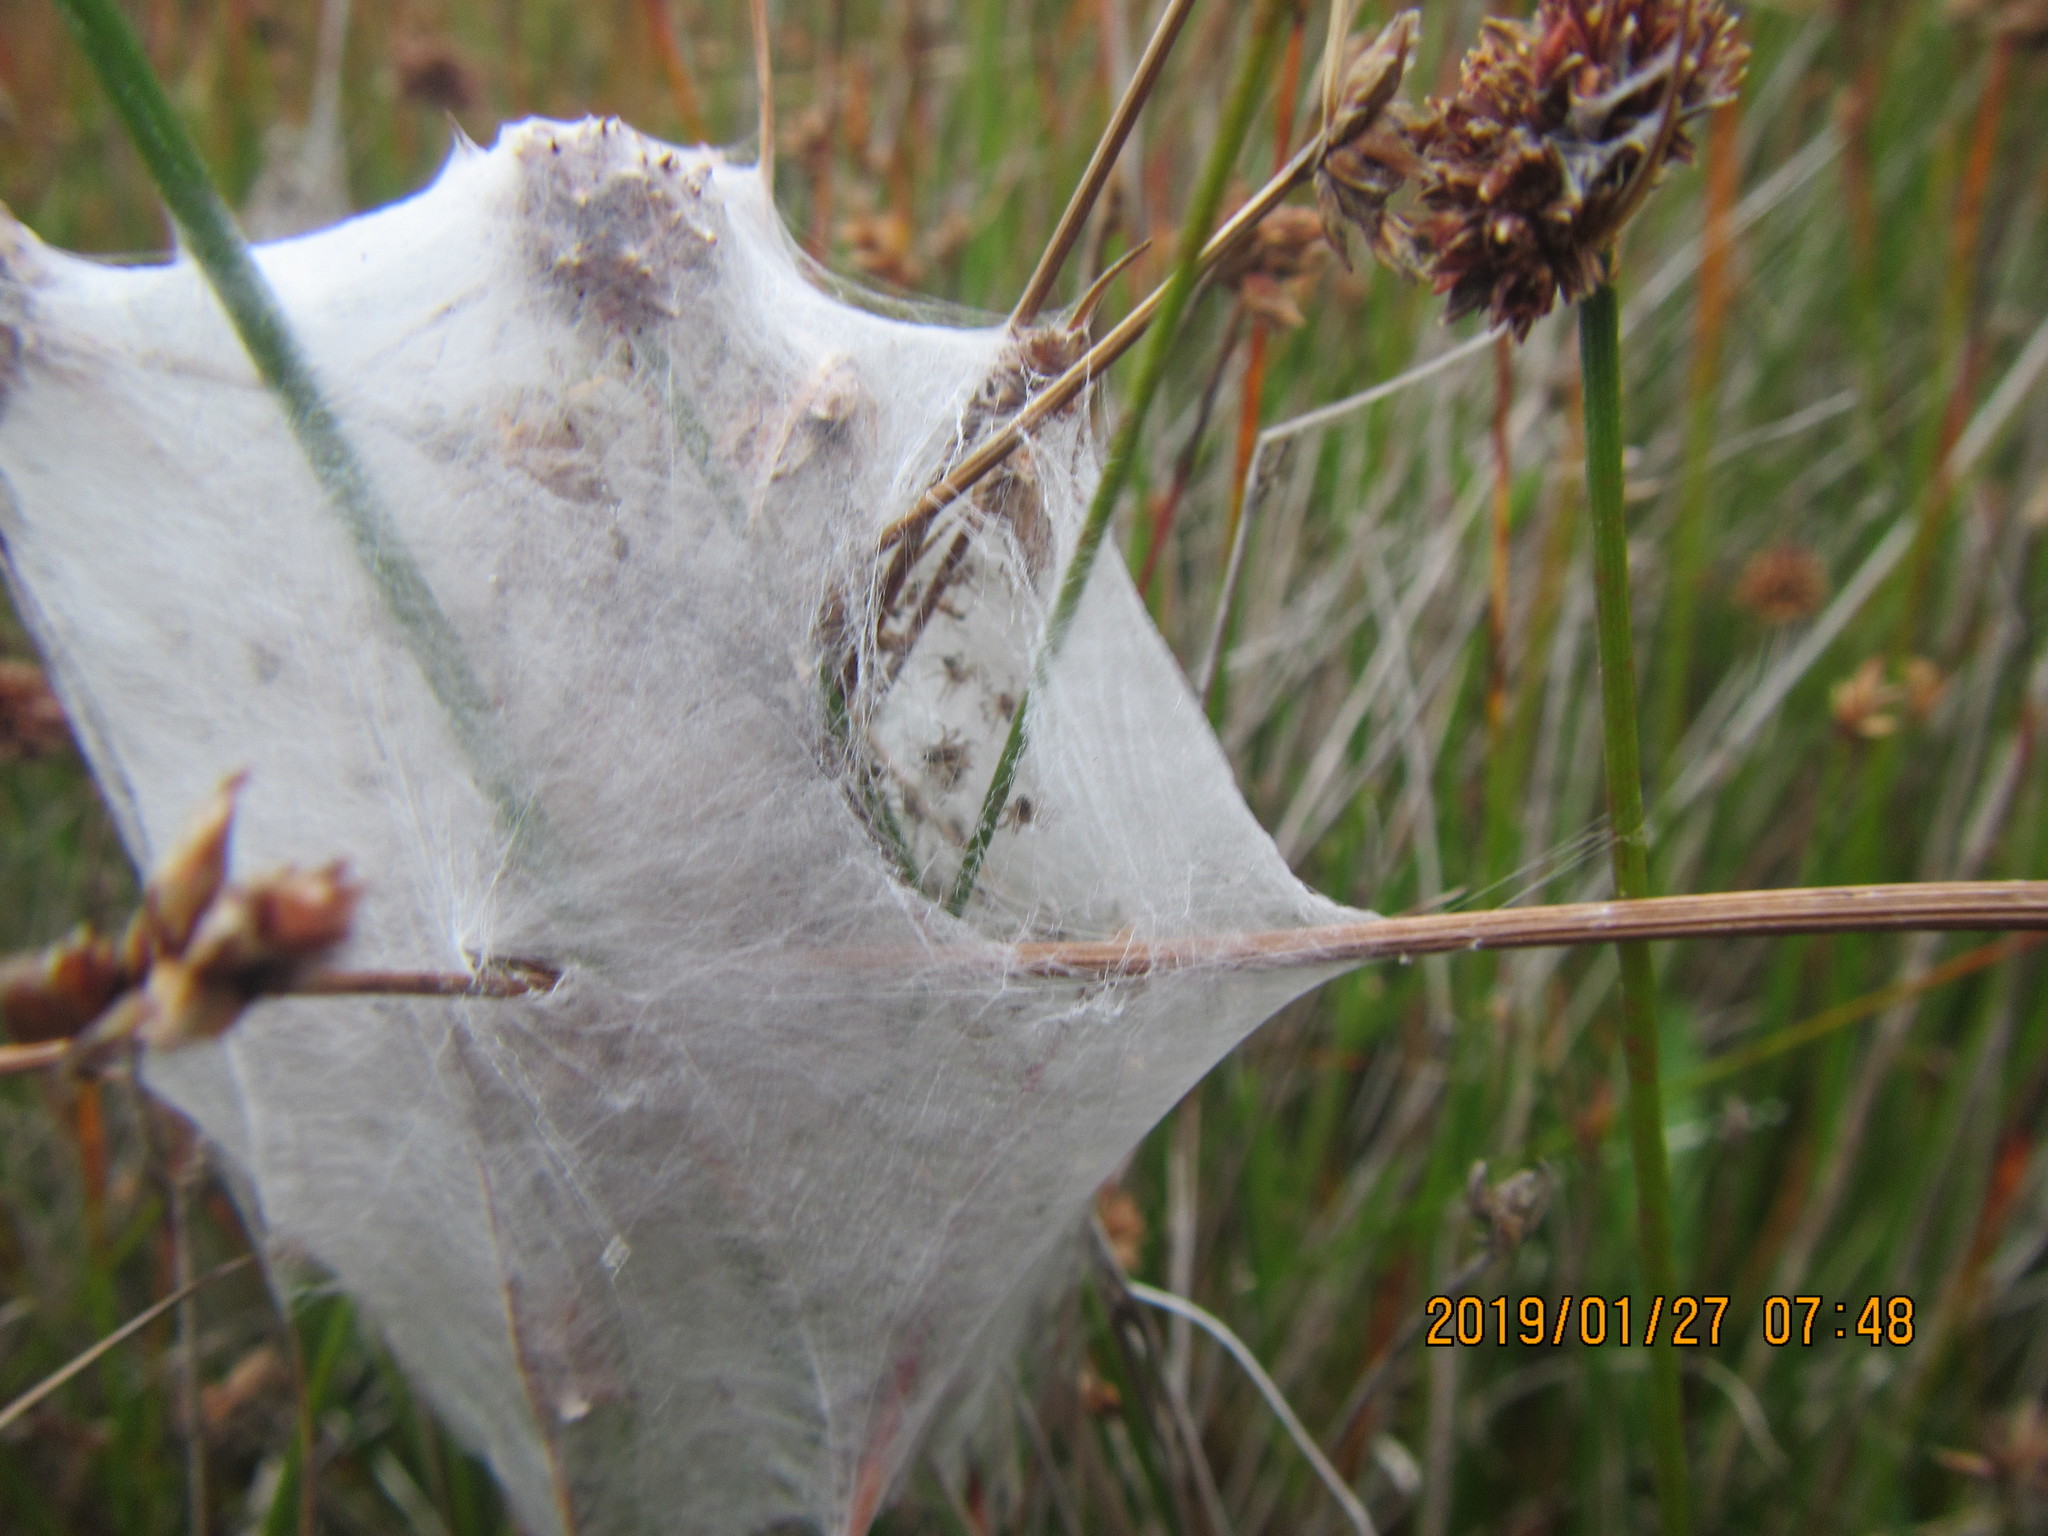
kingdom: Animalia
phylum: Arthropoda
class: Arachnida
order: Araneae
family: Pisauridae
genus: Dolomedes
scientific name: Dolomedes minor
